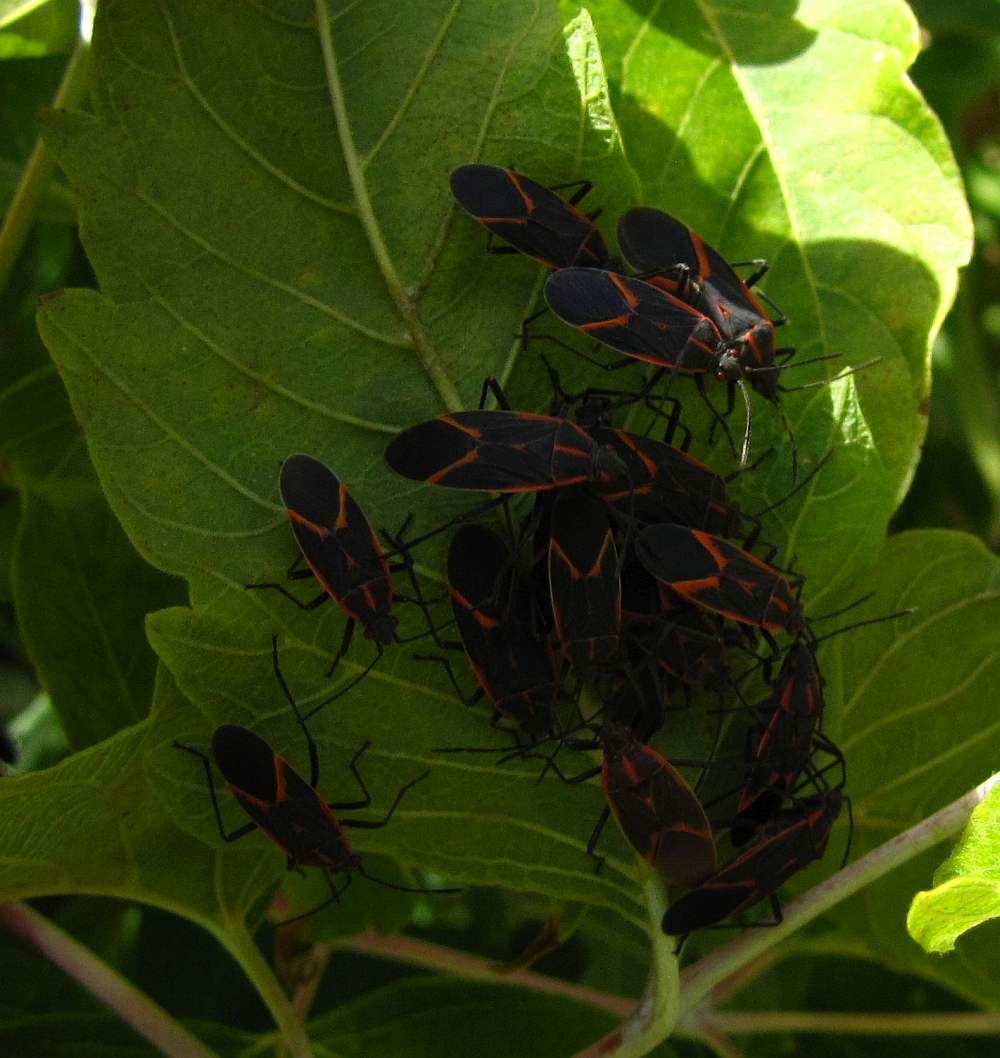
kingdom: Animalia
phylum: Arthropoda
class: Insecta
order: Hemiptera
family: Rhopalidae
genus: Boisea
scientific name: Boisea trivittata
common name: Boxelder bug
